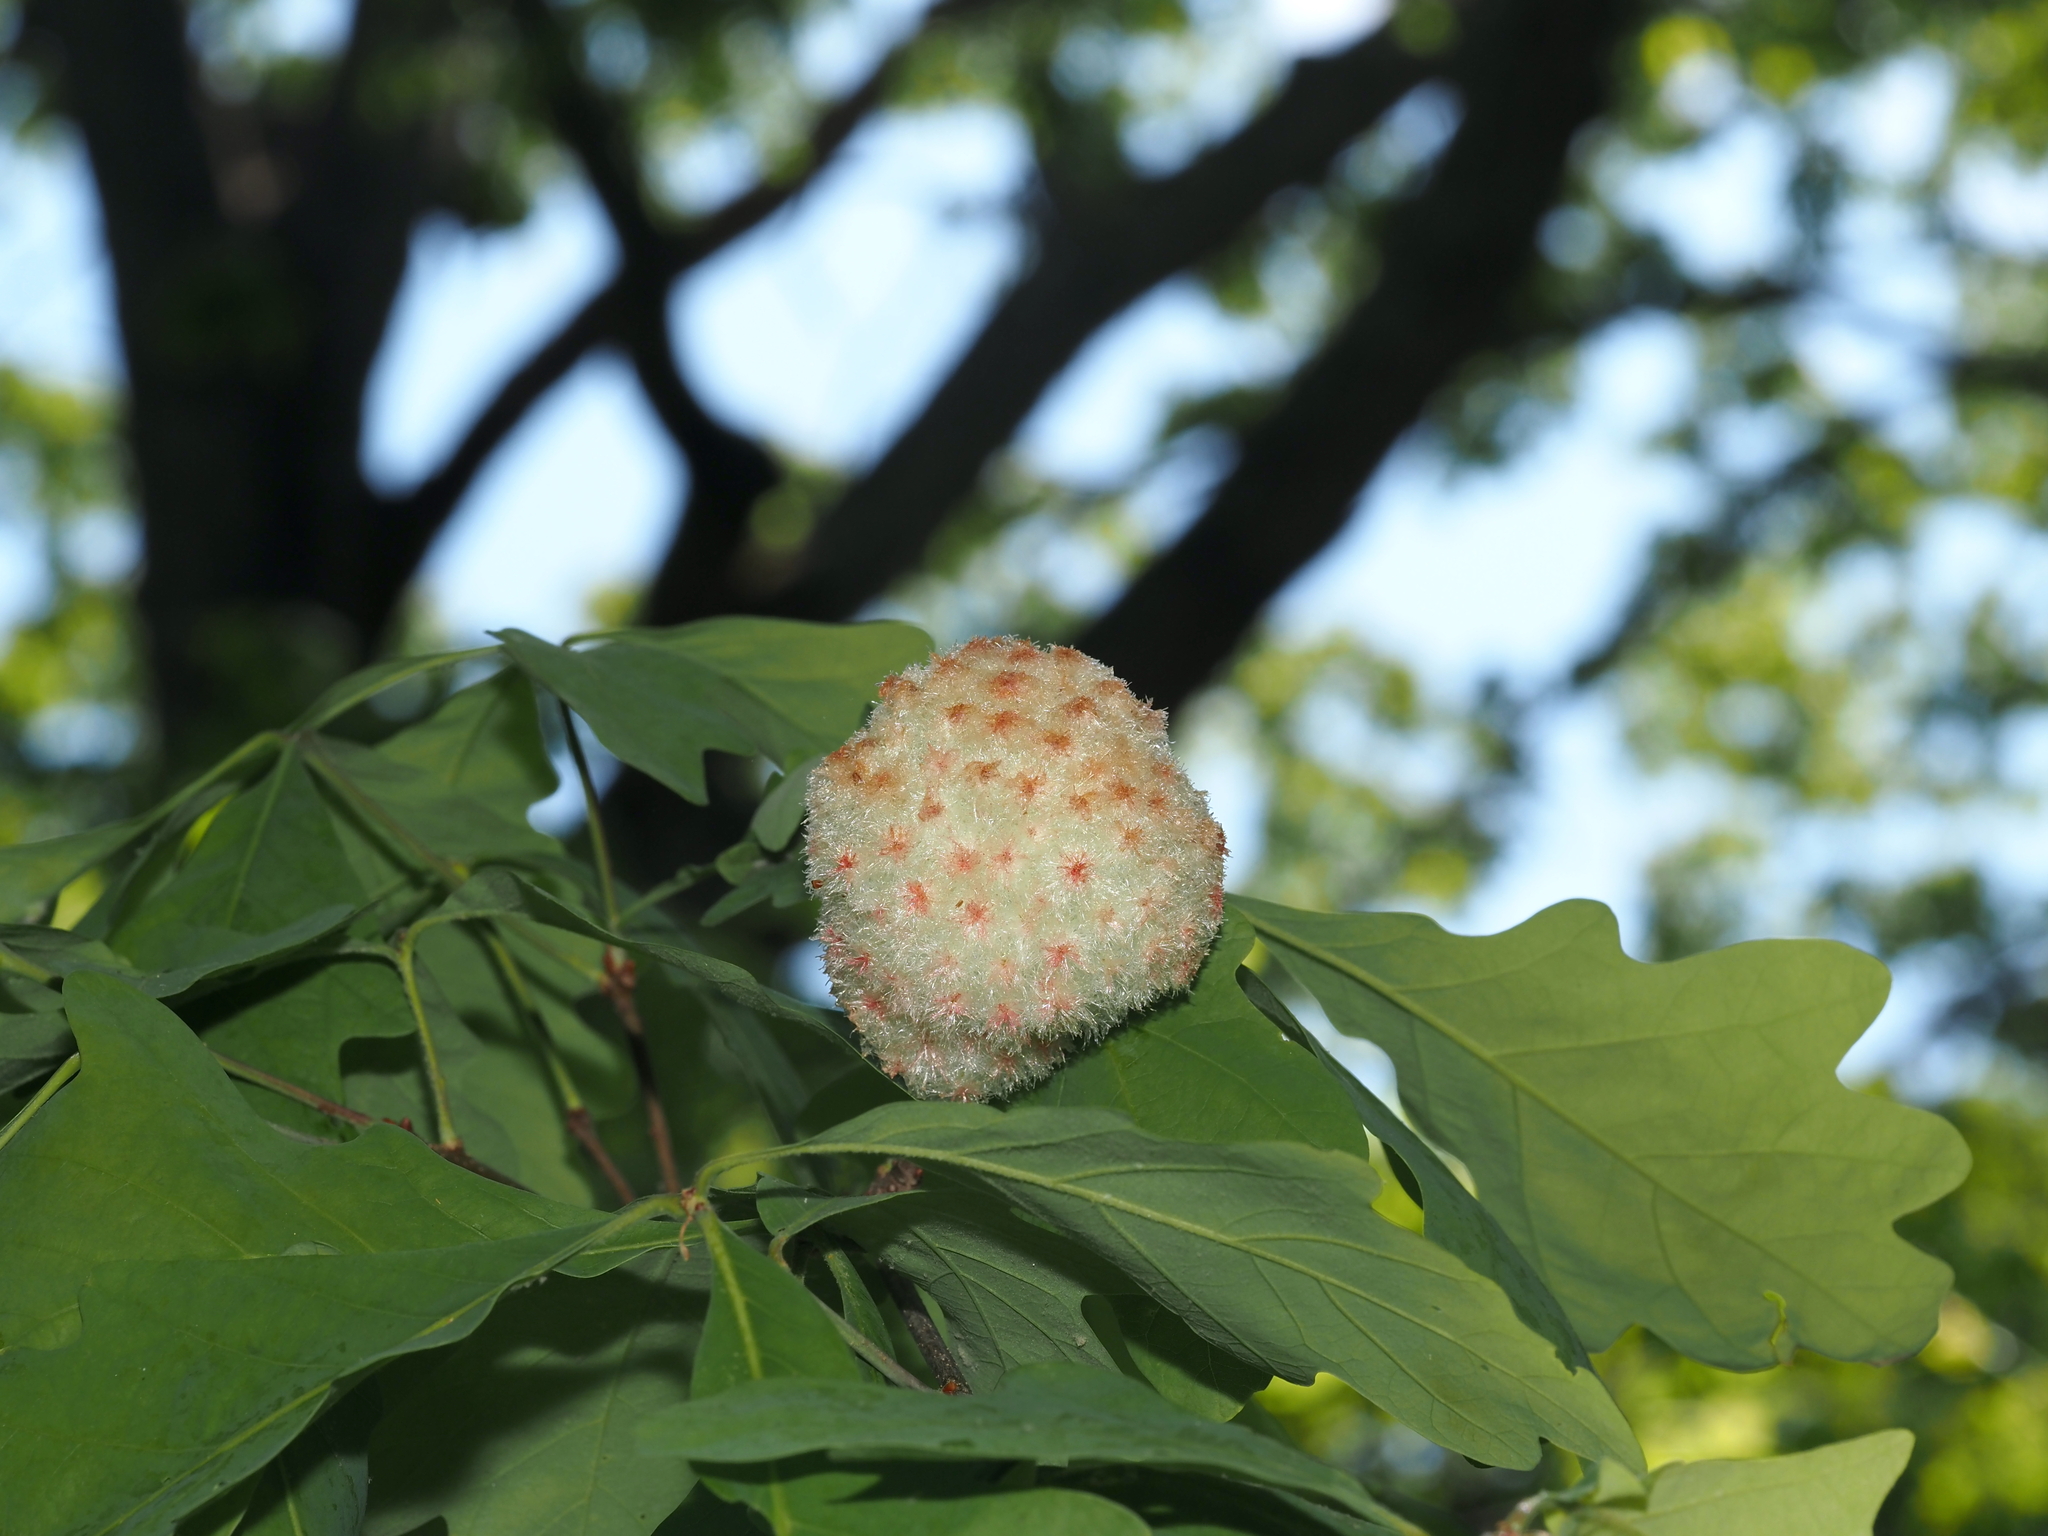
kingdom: Animalia
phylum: Arthropoda
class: Insecta
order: Hymenoptera
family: Cynipidae
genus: Callirhytis
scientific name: Callirhytis
